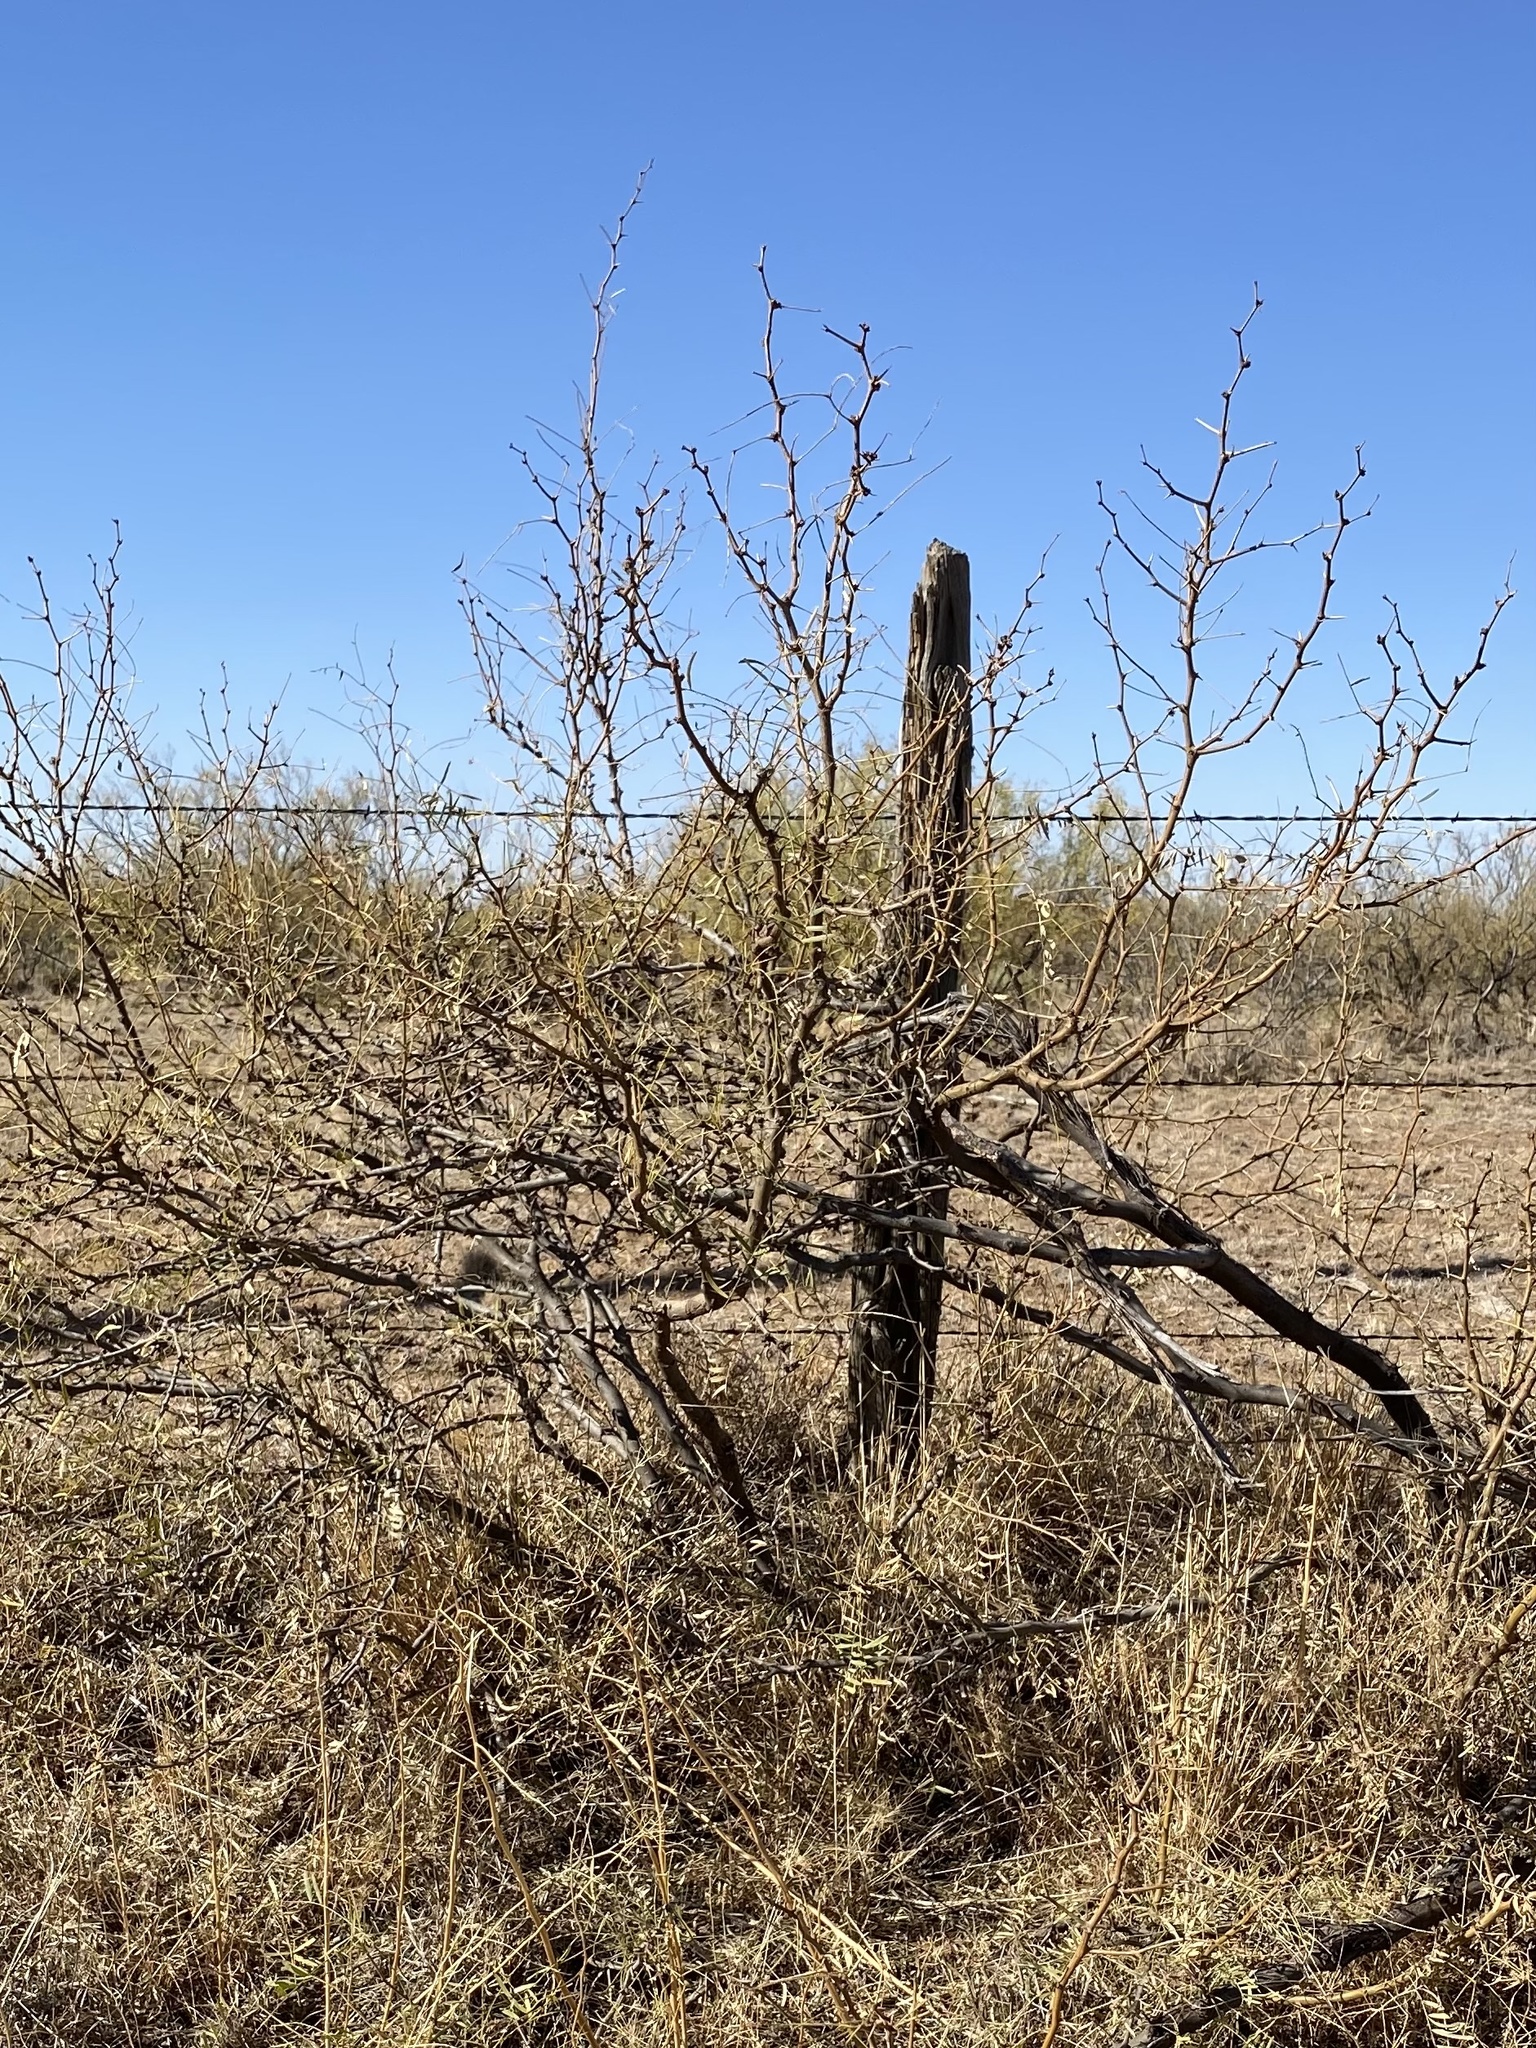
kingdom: Plantae
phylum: Tracheophyta
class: Magnoliopsida
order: Fabales
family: Fabaceae
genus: Prosopis
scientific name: Prosopis glandulosa
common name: Honey mesquite
